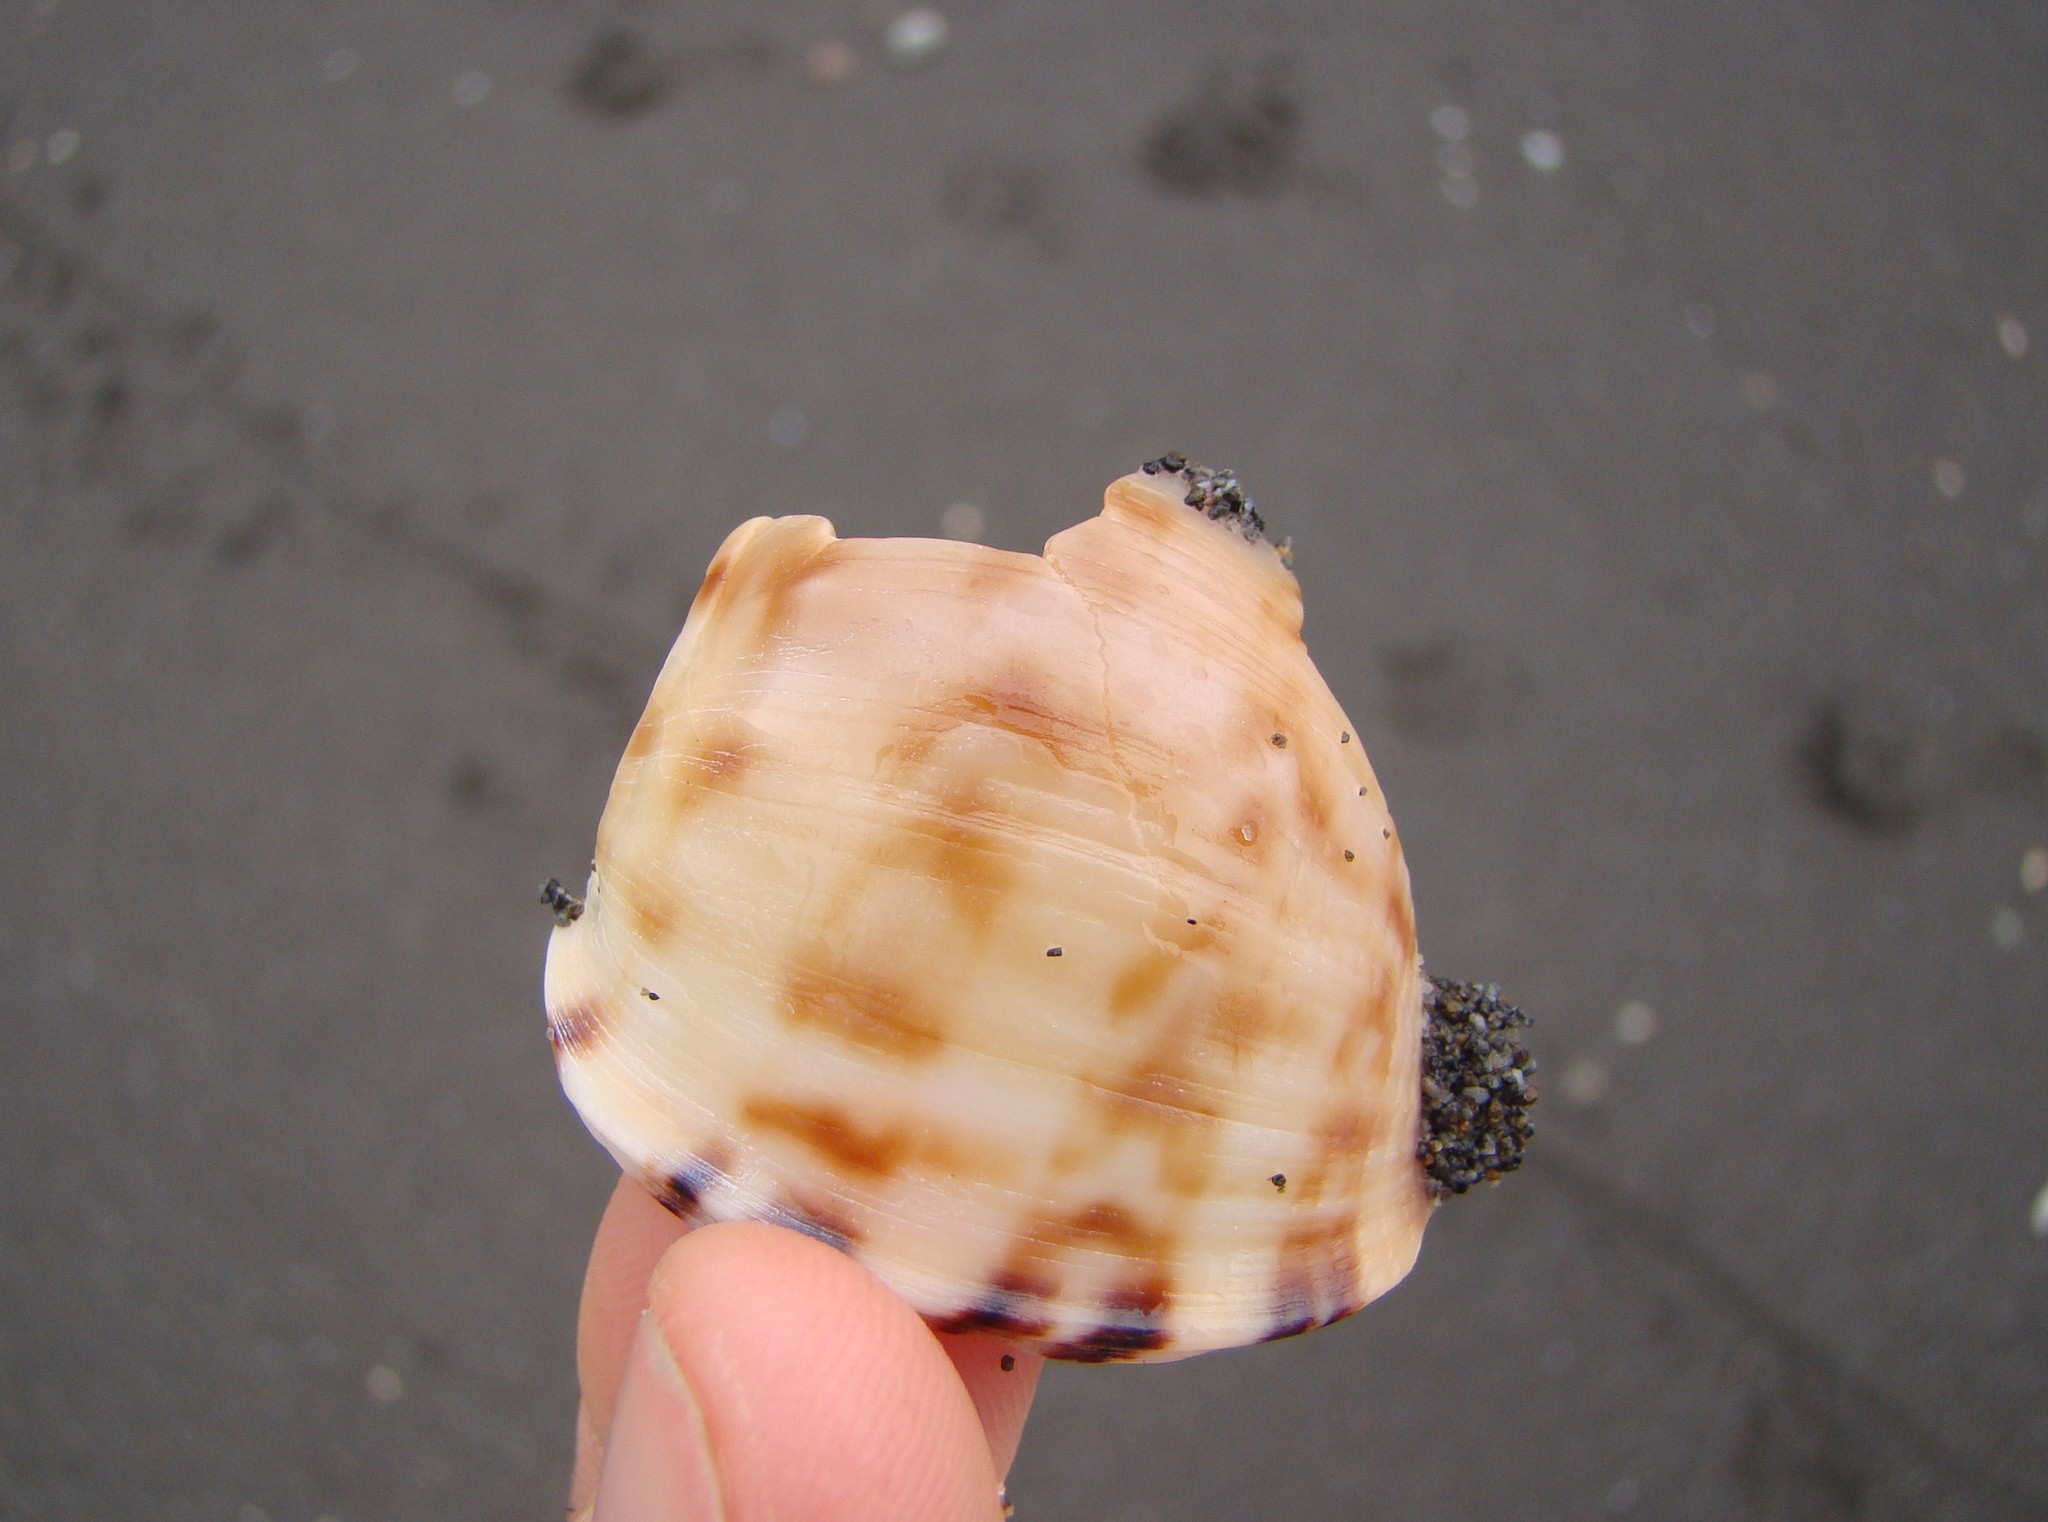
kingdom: Animalia
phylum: Mollusca
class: Gastropoda
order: Littorinimorpha
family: Cassidae
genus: Semicassis
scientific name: Semicassis pyrum
